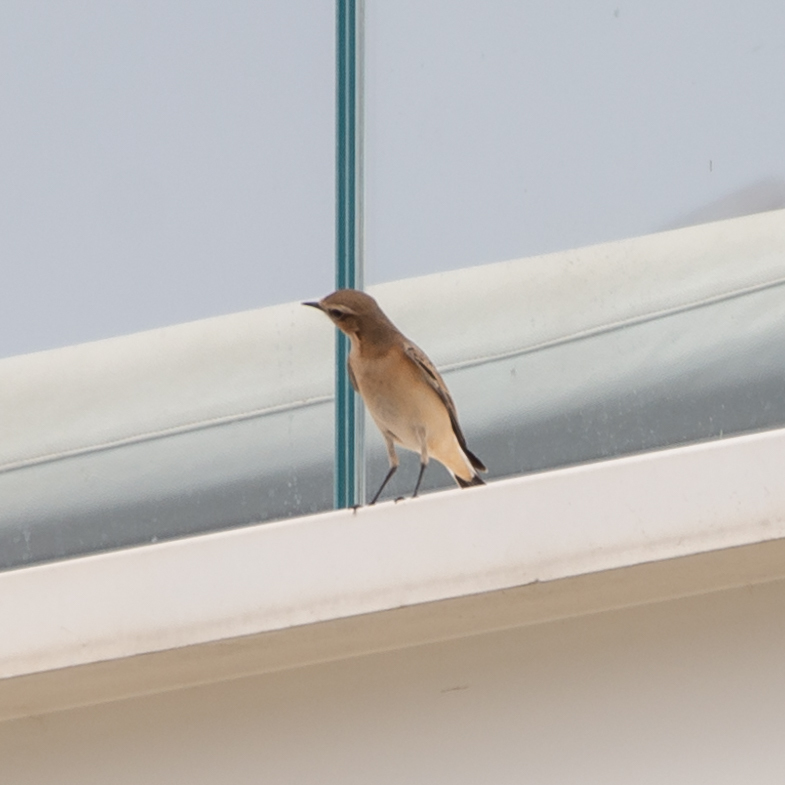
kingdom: Animalia
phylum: Chordata
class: Aves
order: Passeriformes
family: Muscicapidae
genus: Oenanthe
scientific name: Oenanthe oenanthe
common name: Northern wheatear
